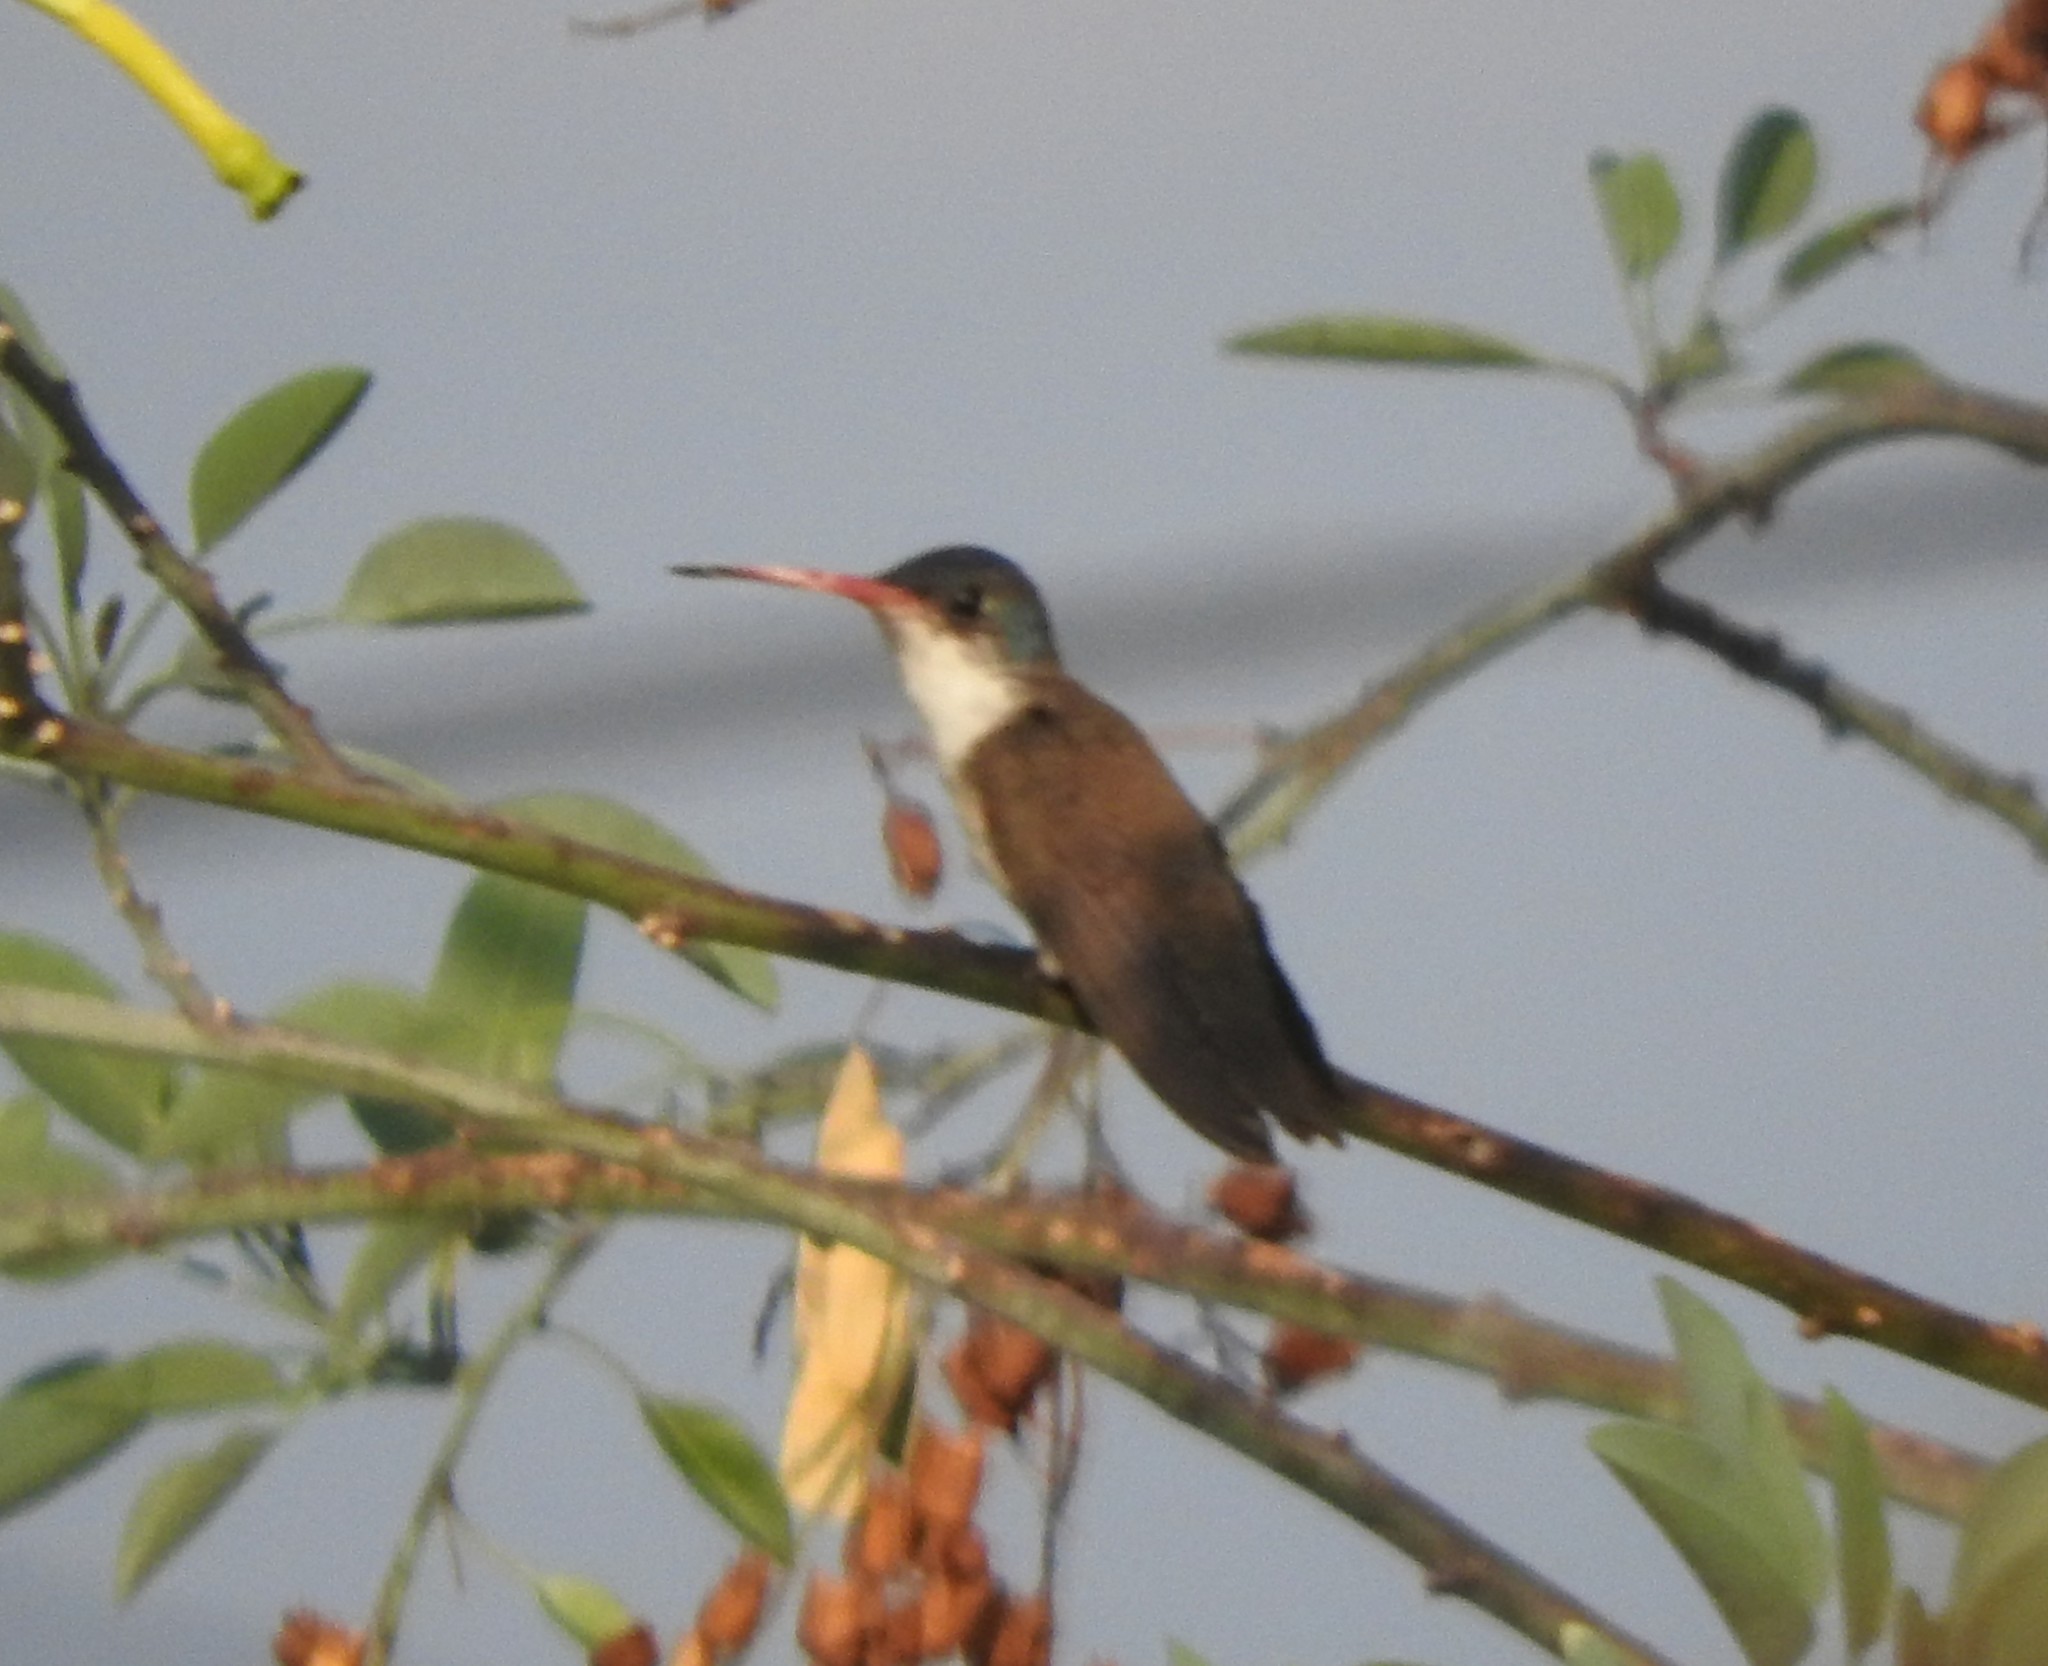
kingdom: Animalia
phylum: Chordata
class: Aves
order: Apodiformes
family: Trochilidae
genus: Leucolia
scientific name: Leucolia violiceps
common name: Violet-crowned hummingbird
